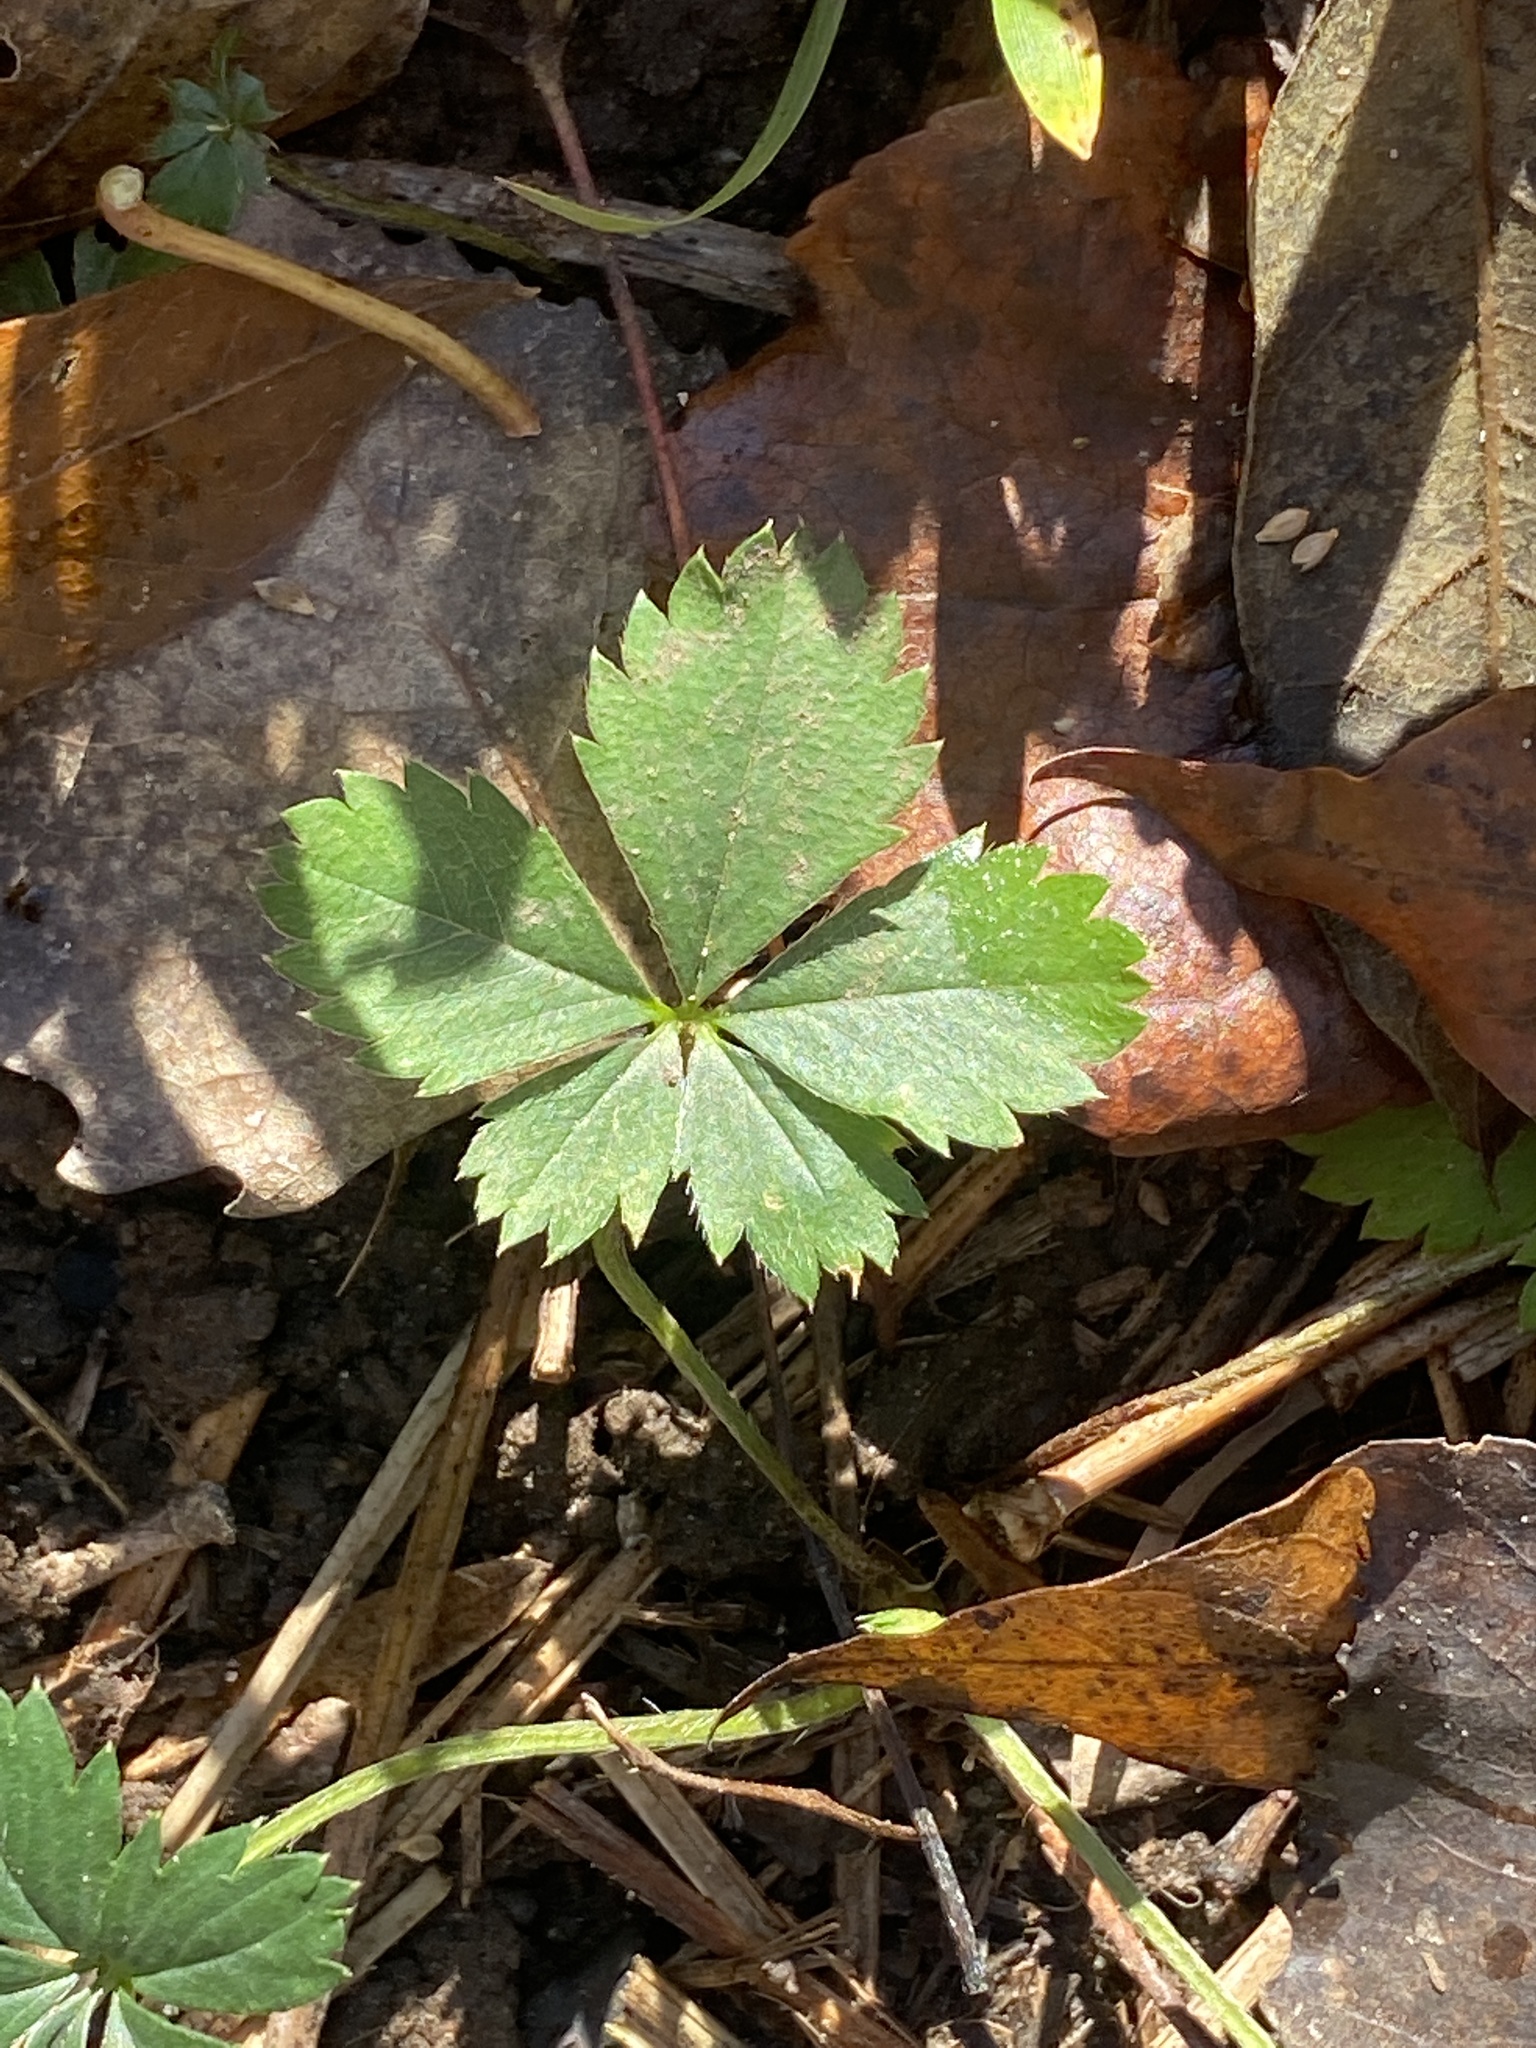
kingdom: Plantae
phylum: Tracheophyta
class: Magnoliopsida
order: Rosales
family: Rosaceae
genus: Potentilla
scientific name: Potentilla canadensis
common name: Canada cinquefoil
